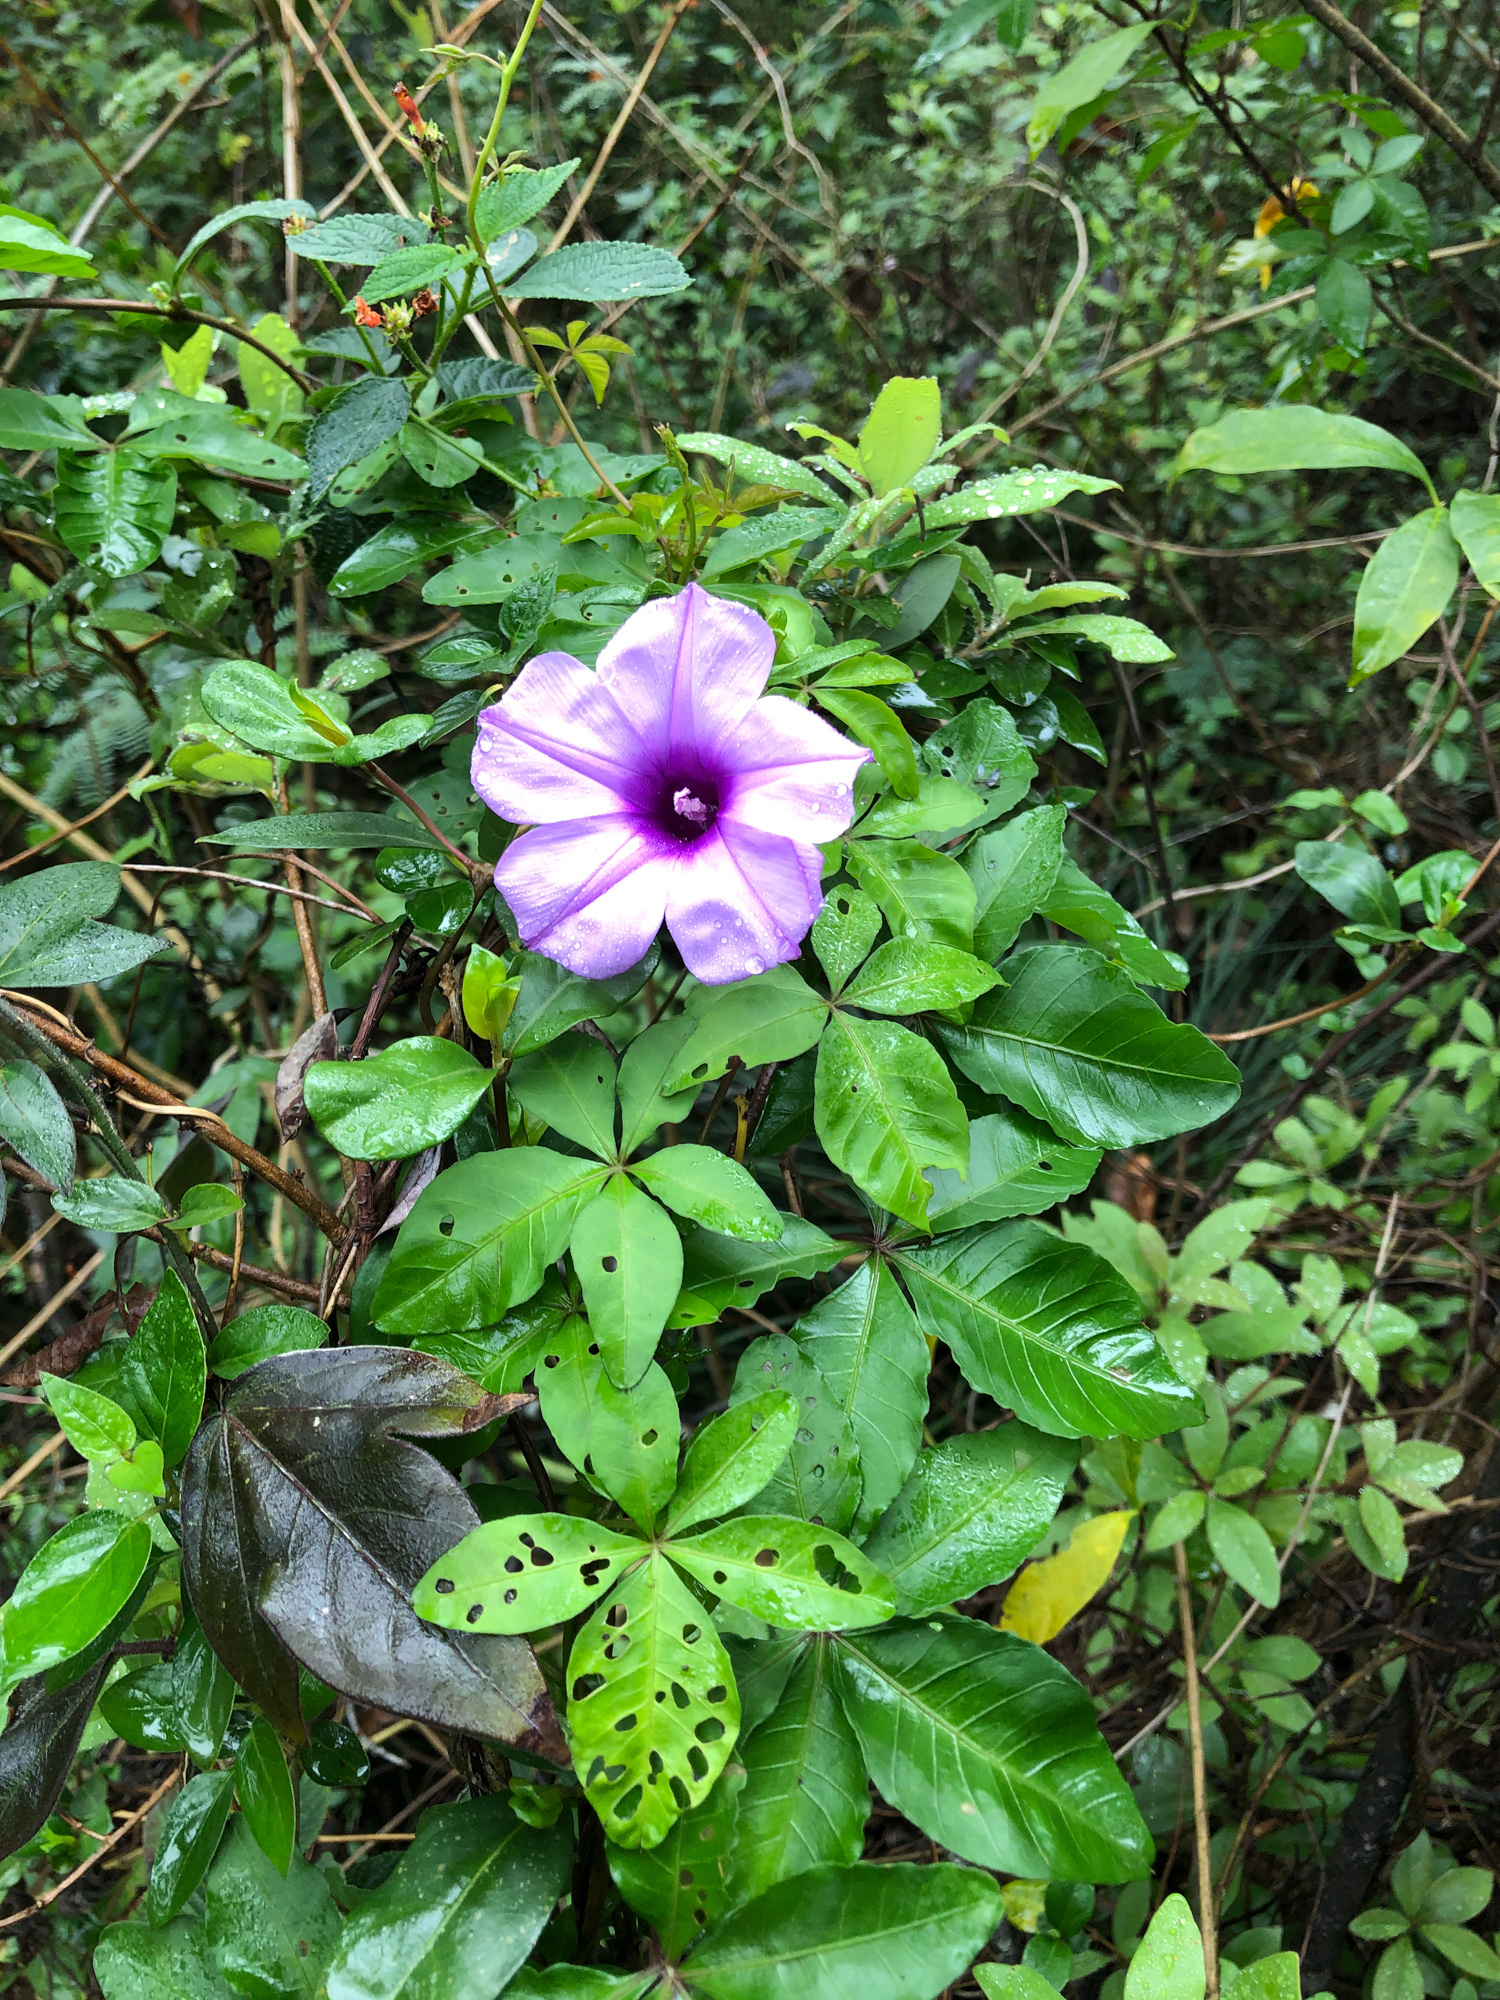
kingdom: Plantae
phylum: Tracheophyta
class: Magnoliopsida
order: Solanales
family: Convolvulaceae
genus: Ipomoea
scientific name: Ipomoea cairica
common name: Mile a minute vine
